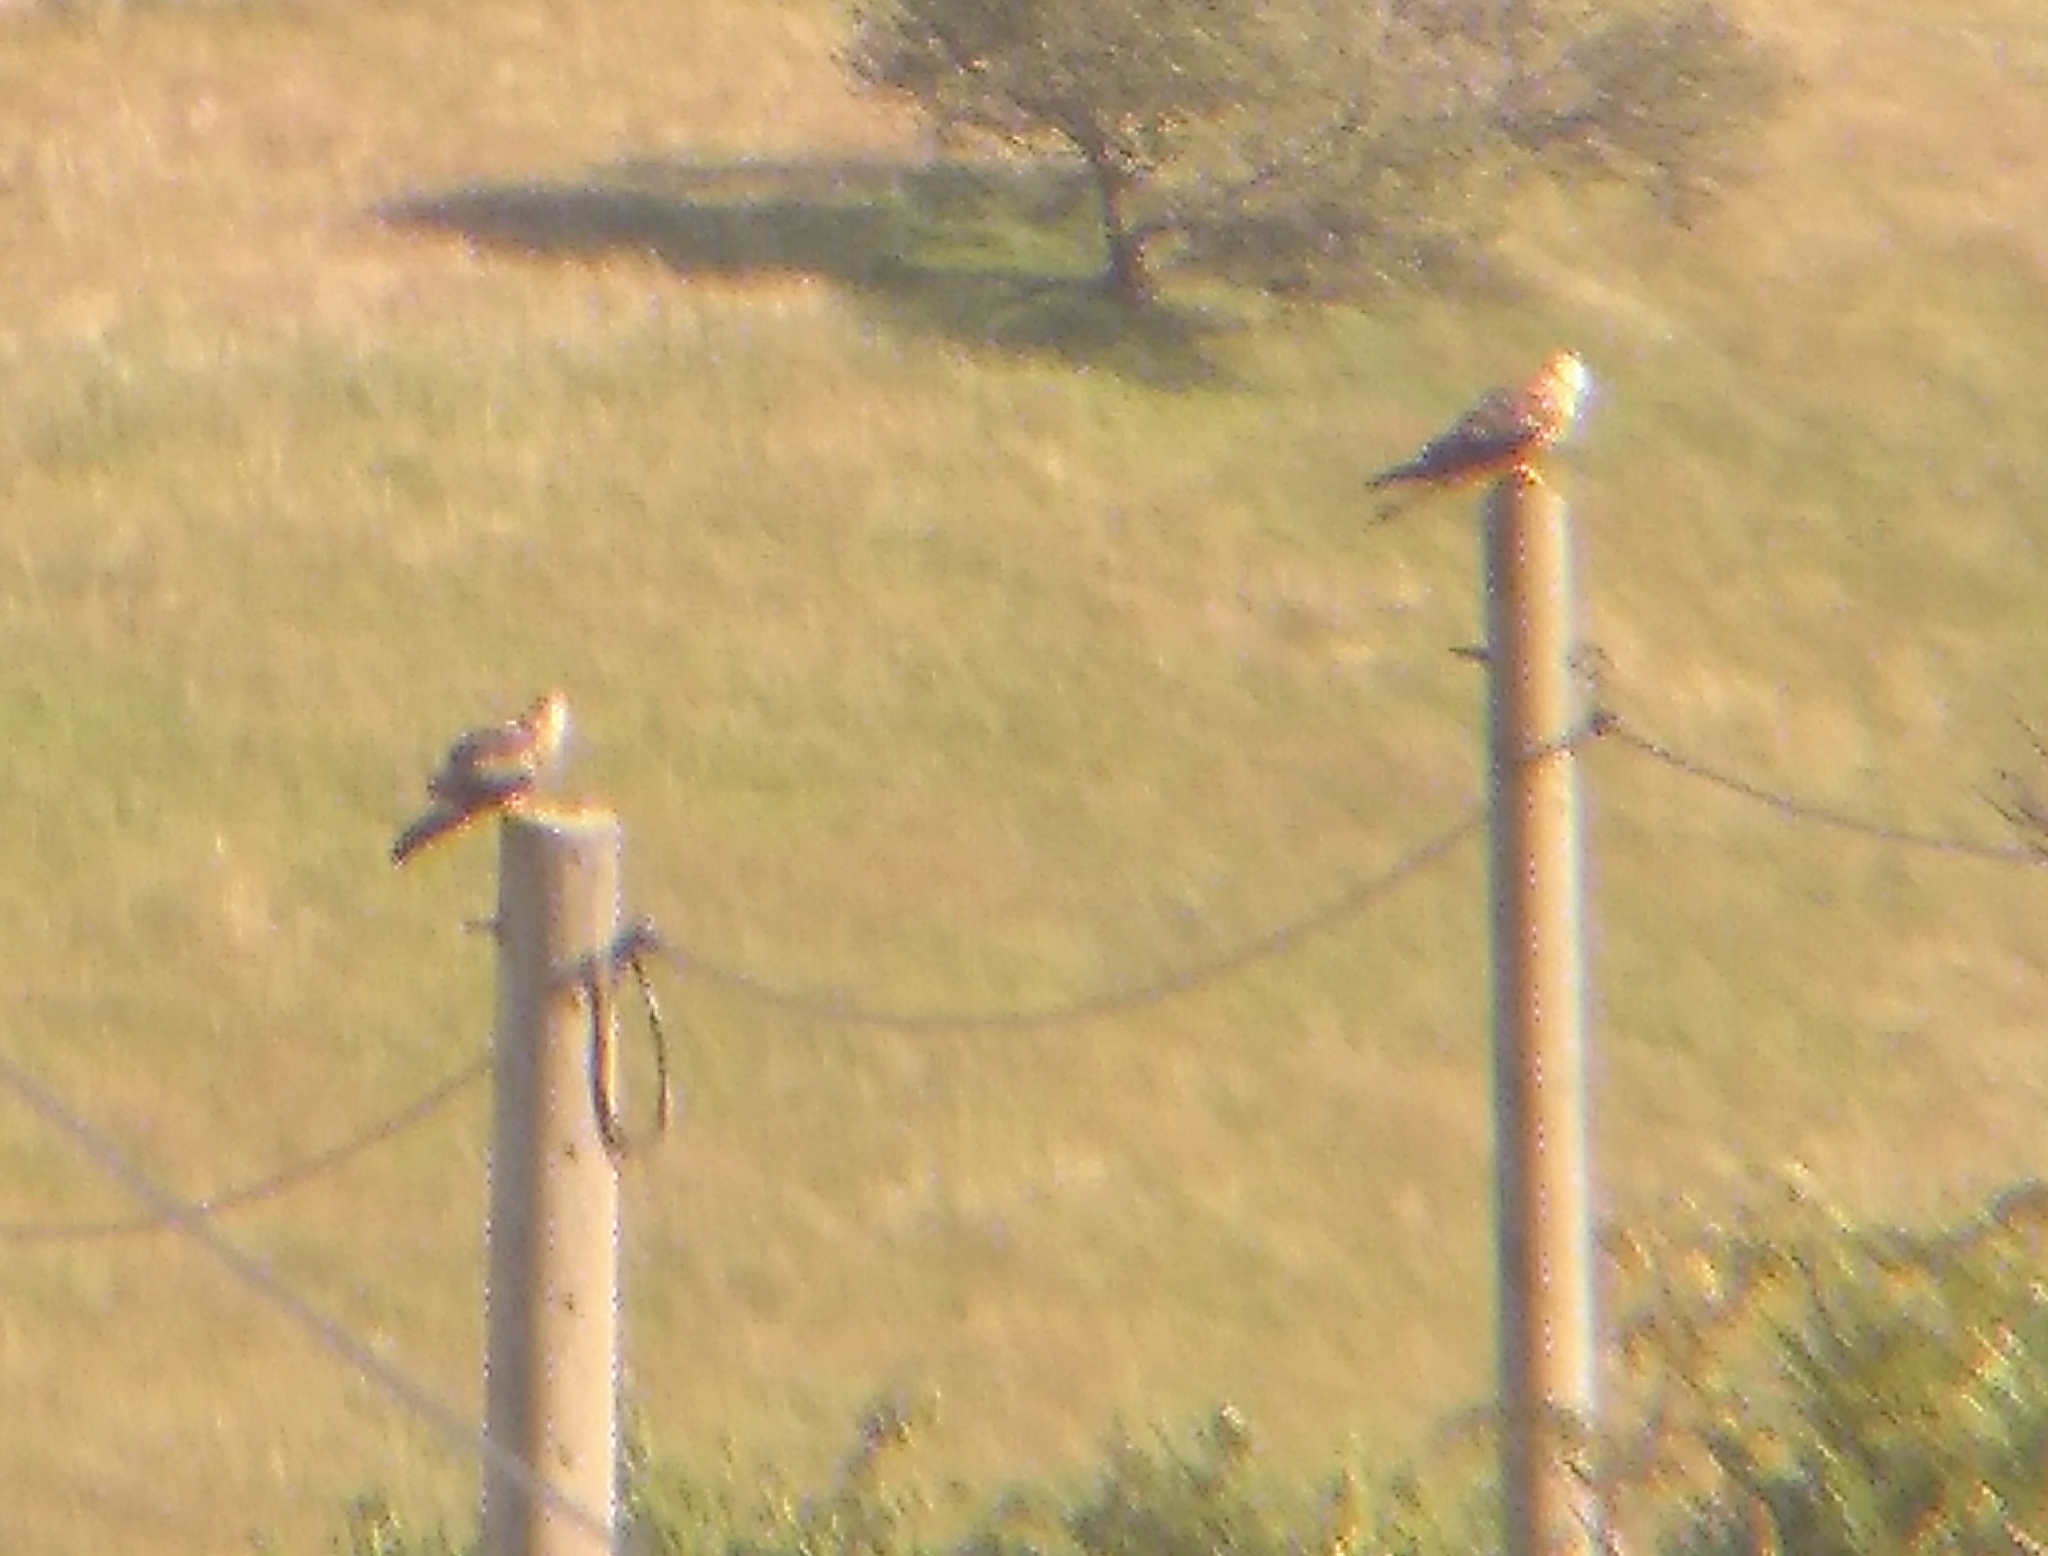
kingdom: Animalia
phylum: Chordata
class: Aves
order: Accipitriformes
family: Accipitridae
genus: Milvus
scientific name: Milvus milvus
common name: Red kite
